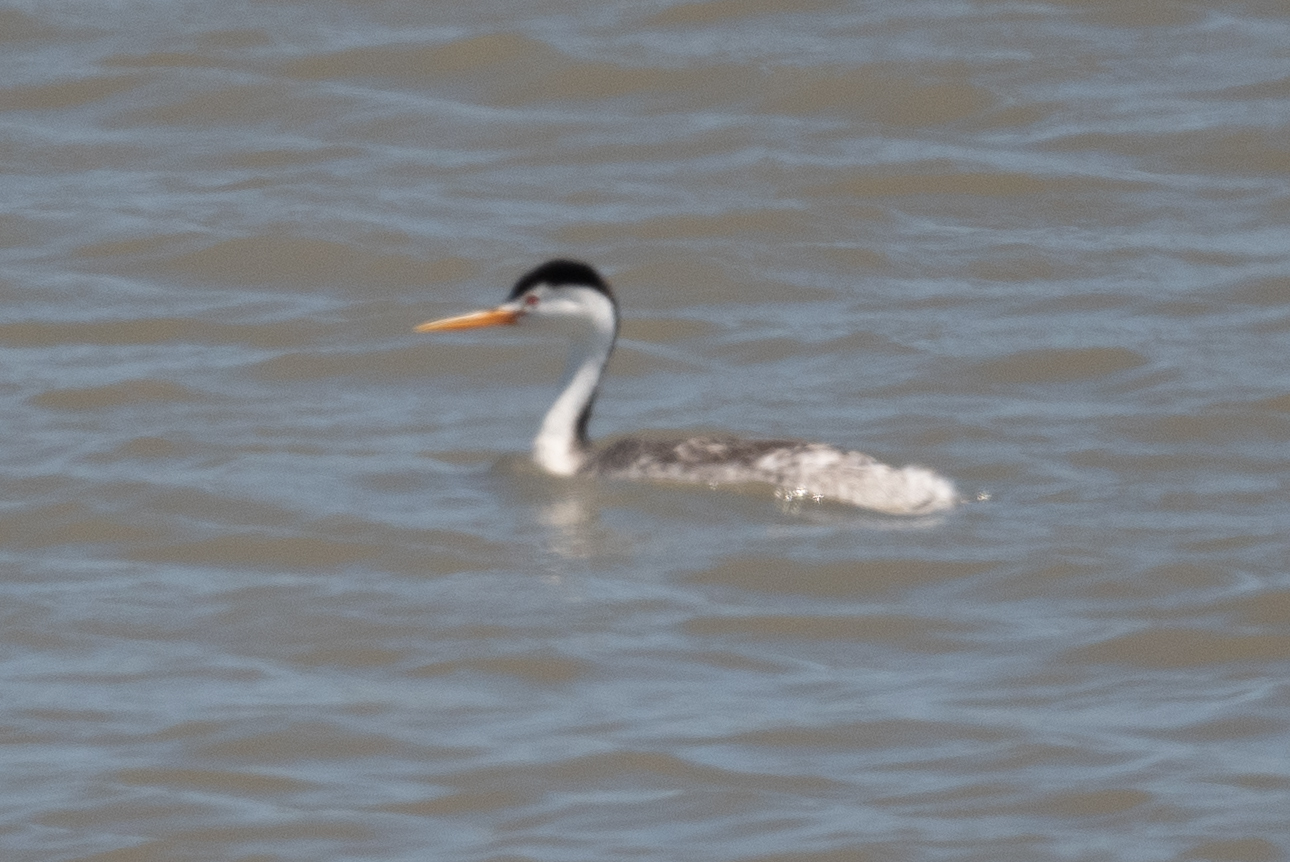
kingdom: Animalia
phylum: Chordata
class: Aves
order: Podicipediformes
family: Podicipedidae
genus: Aechmophorus
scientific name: Aechmophorus clarkii
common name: Clark's grebe
